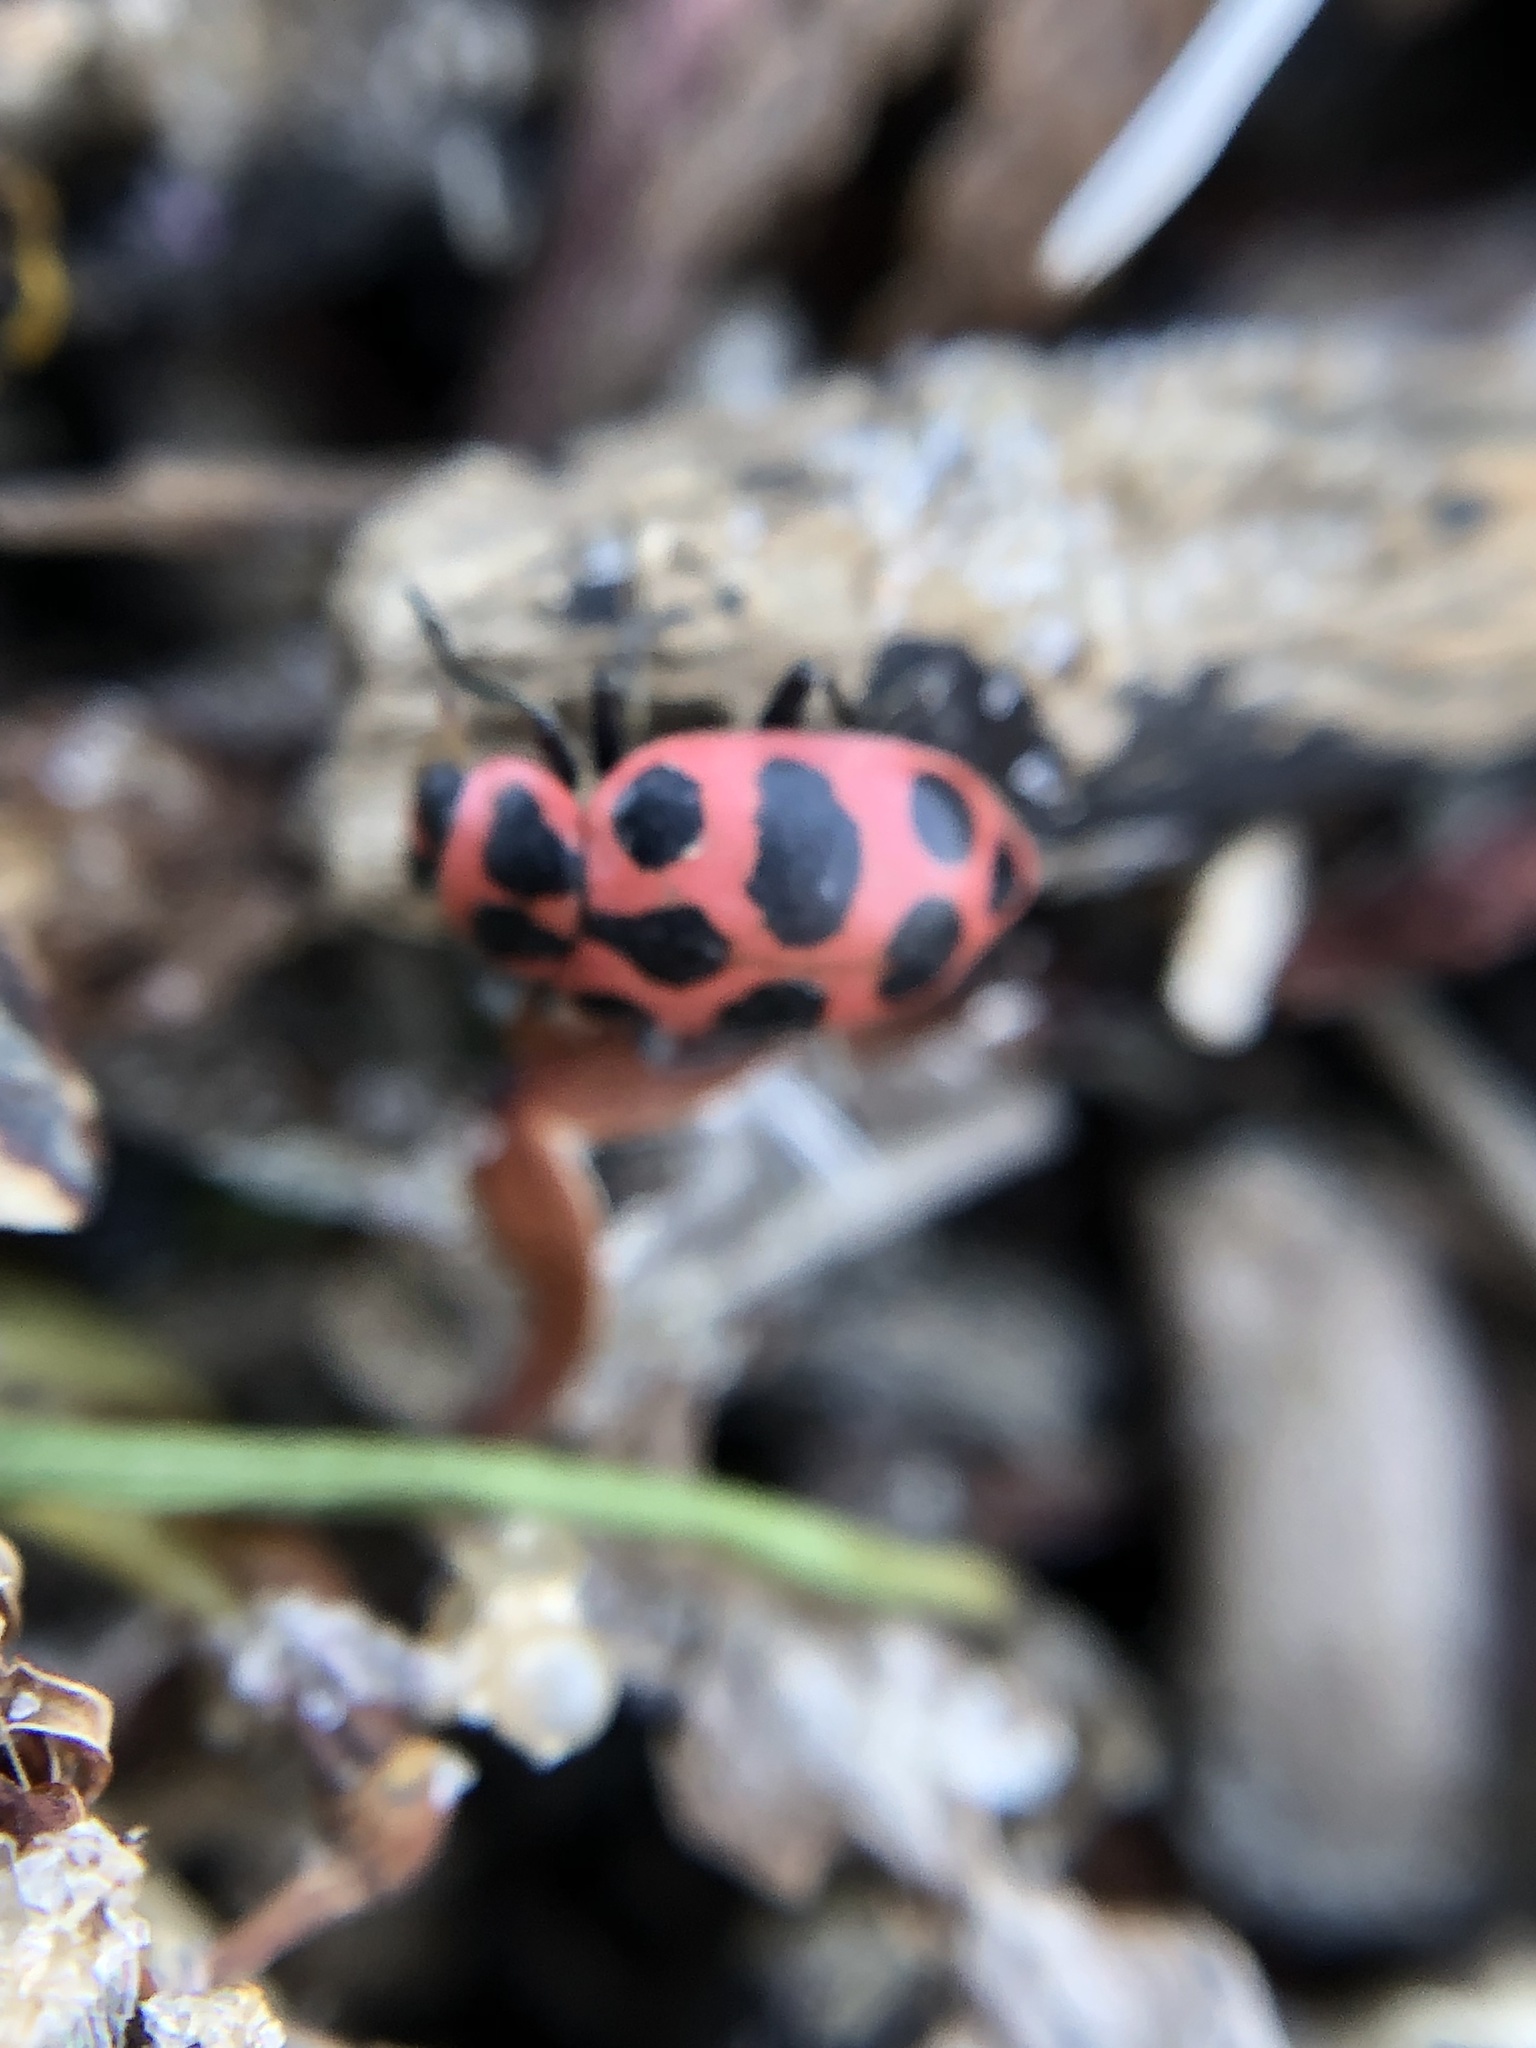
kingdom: Animalia
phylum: Arthropoda
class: Insecta
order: Coleoptera
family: Coccinellidae
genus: Coleomegilla
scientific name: Coleomegilla maculata
